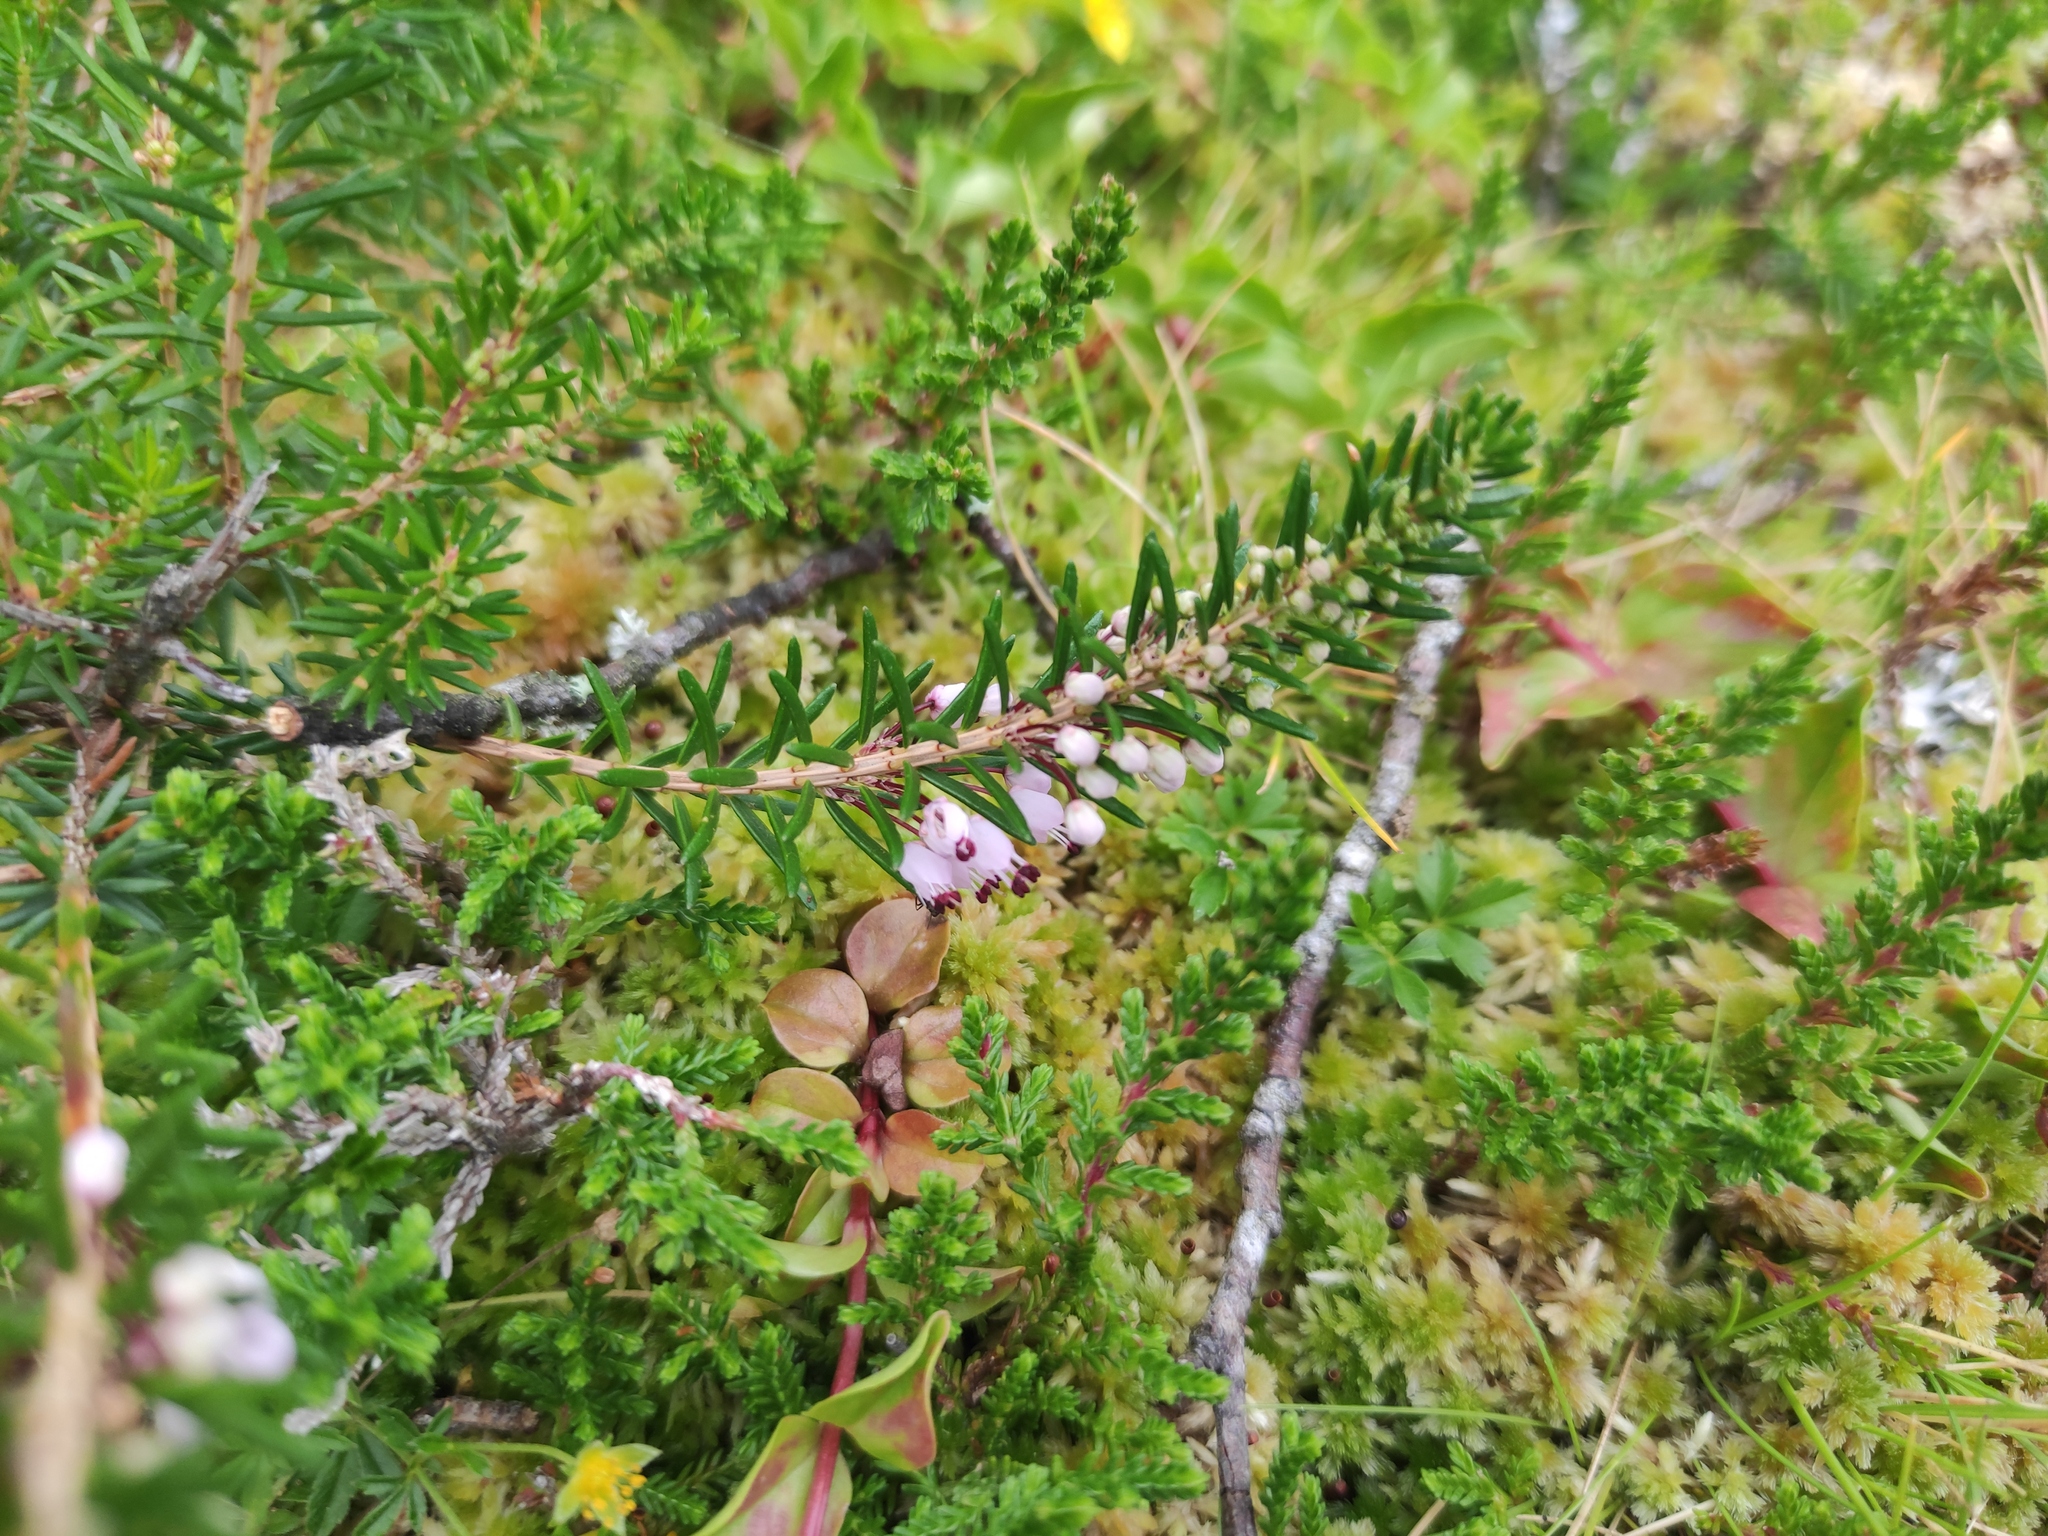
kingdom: Plantae
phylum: Tracheophyta
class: Magnoliopsida
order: Ericales
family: Ericaceae
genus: Erica
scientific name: Erica cinerea
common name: Bell heather
